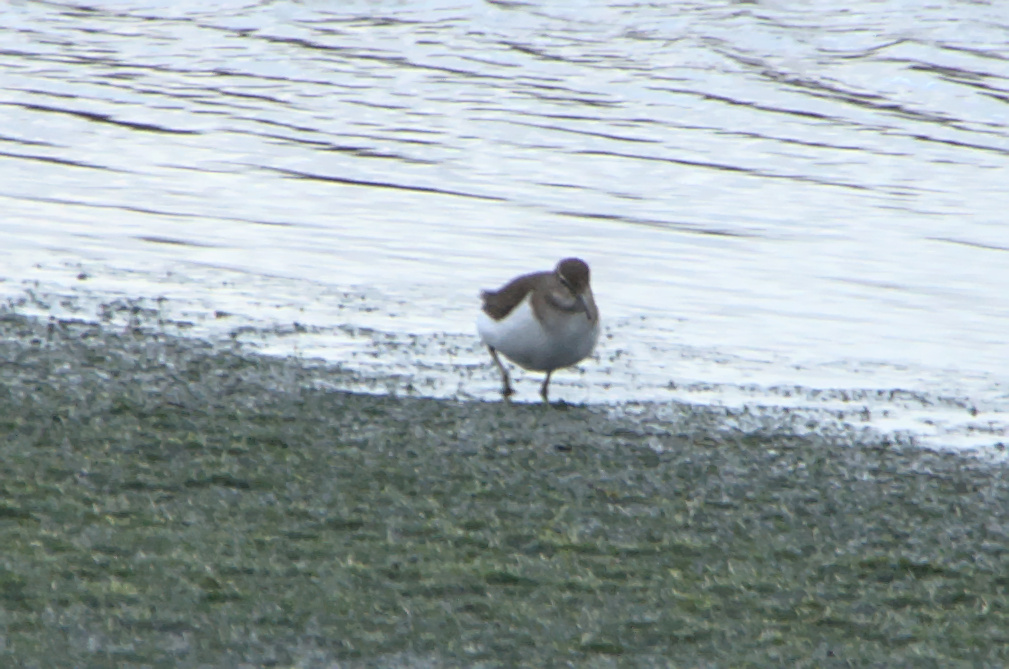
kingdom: Animalia
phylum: Chordata
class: Aves
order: Charadriiformes
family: Scolopacidae
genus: Actitis
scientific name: Actitis hypoleucos
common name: Common sandpiper
